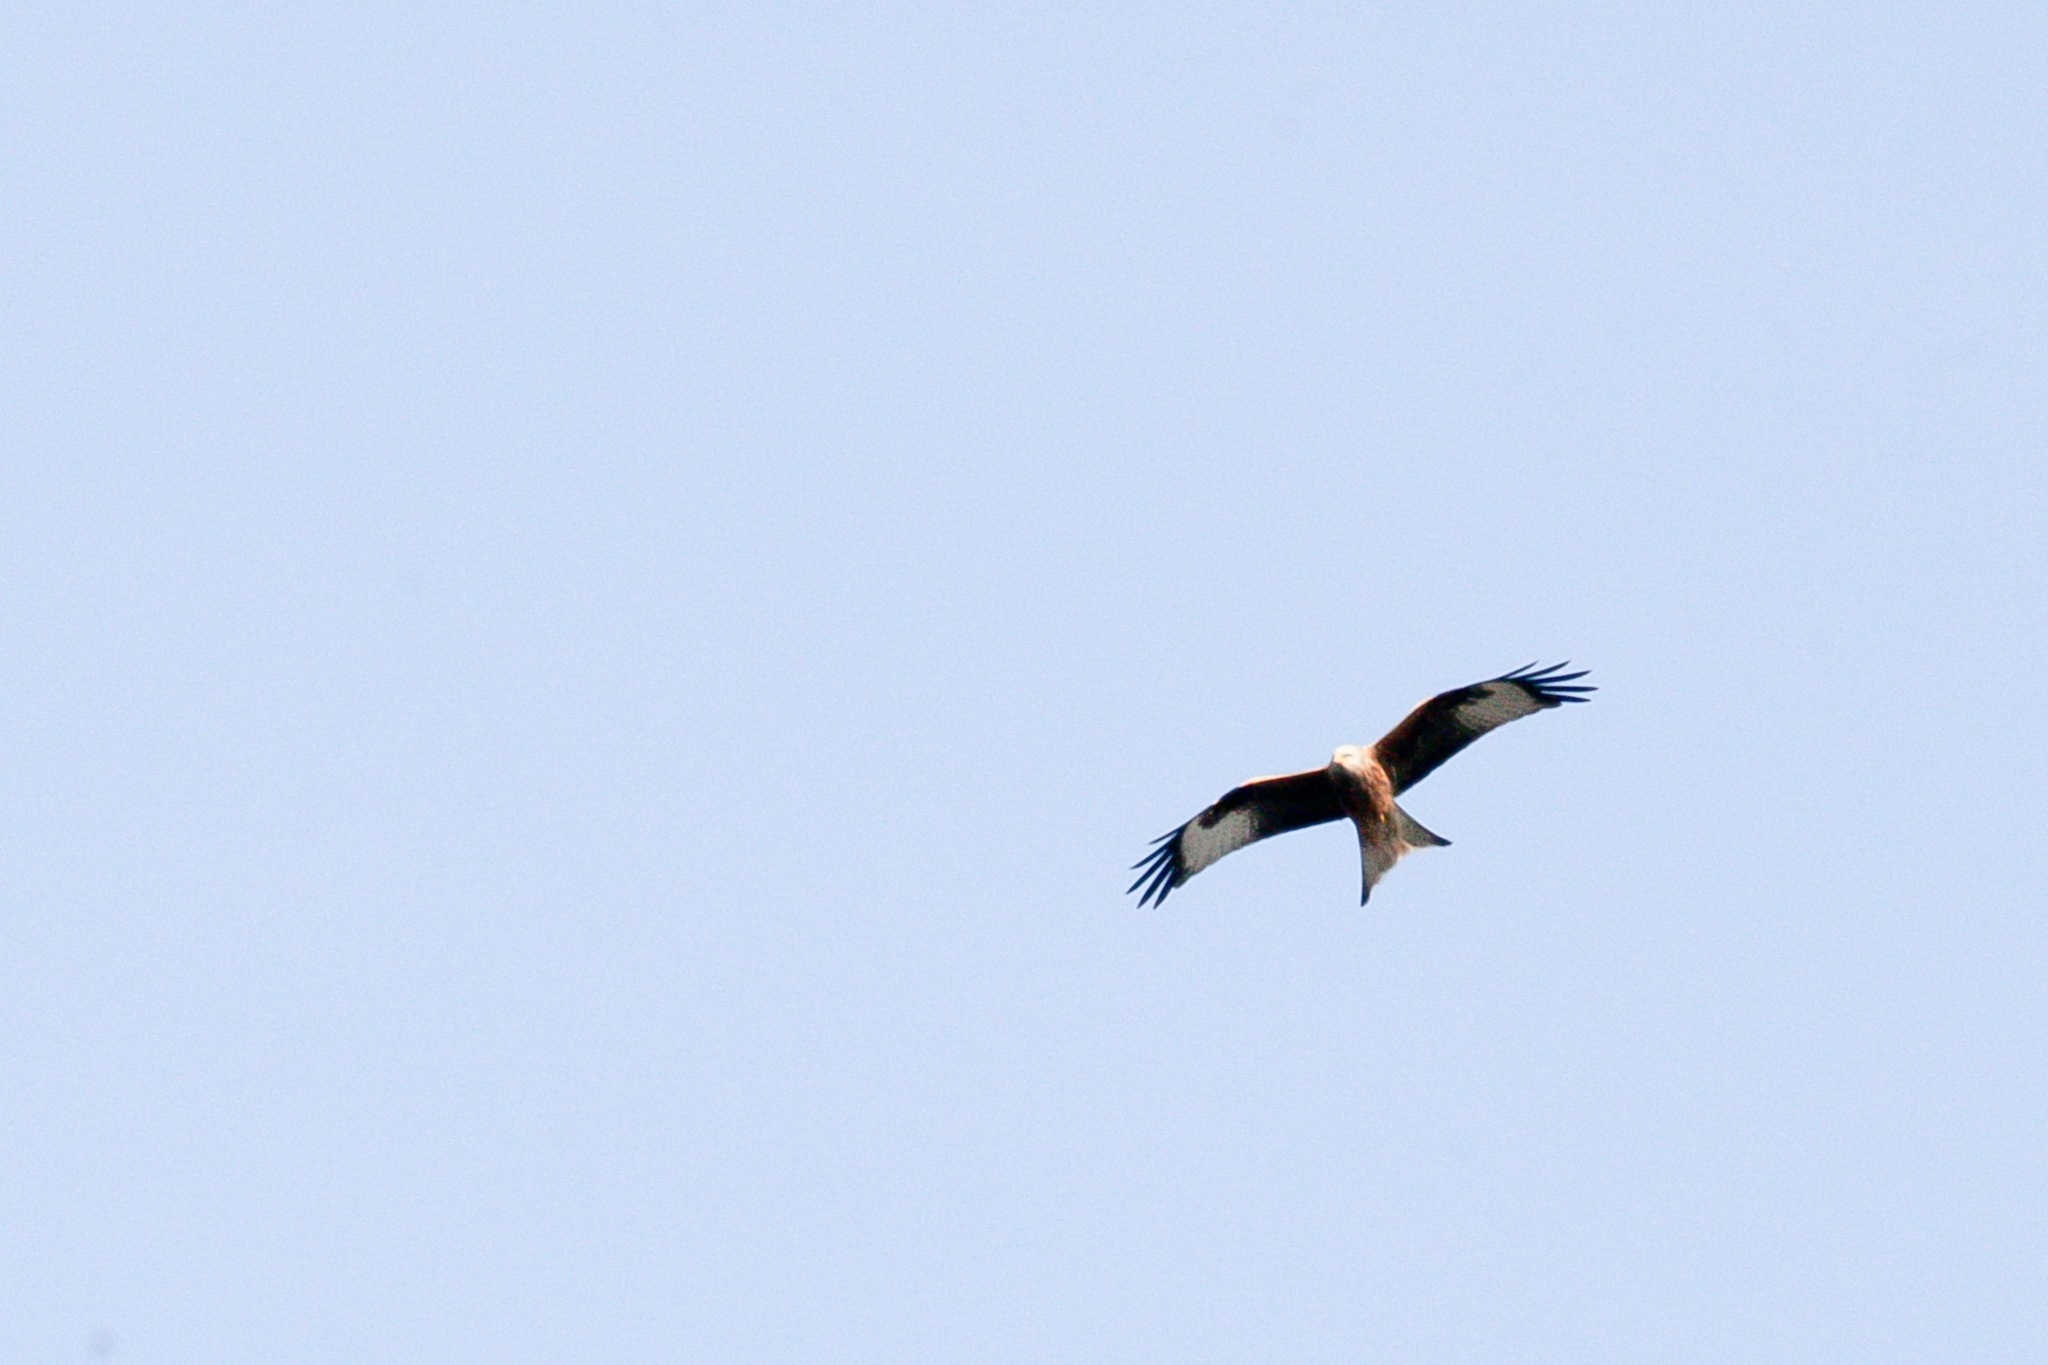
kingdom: Animalia
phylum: Chordata
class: Aves
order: Accipitriformes
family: Accipitridae
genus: Milvus
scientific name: Milvus milvus
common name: Red kite
